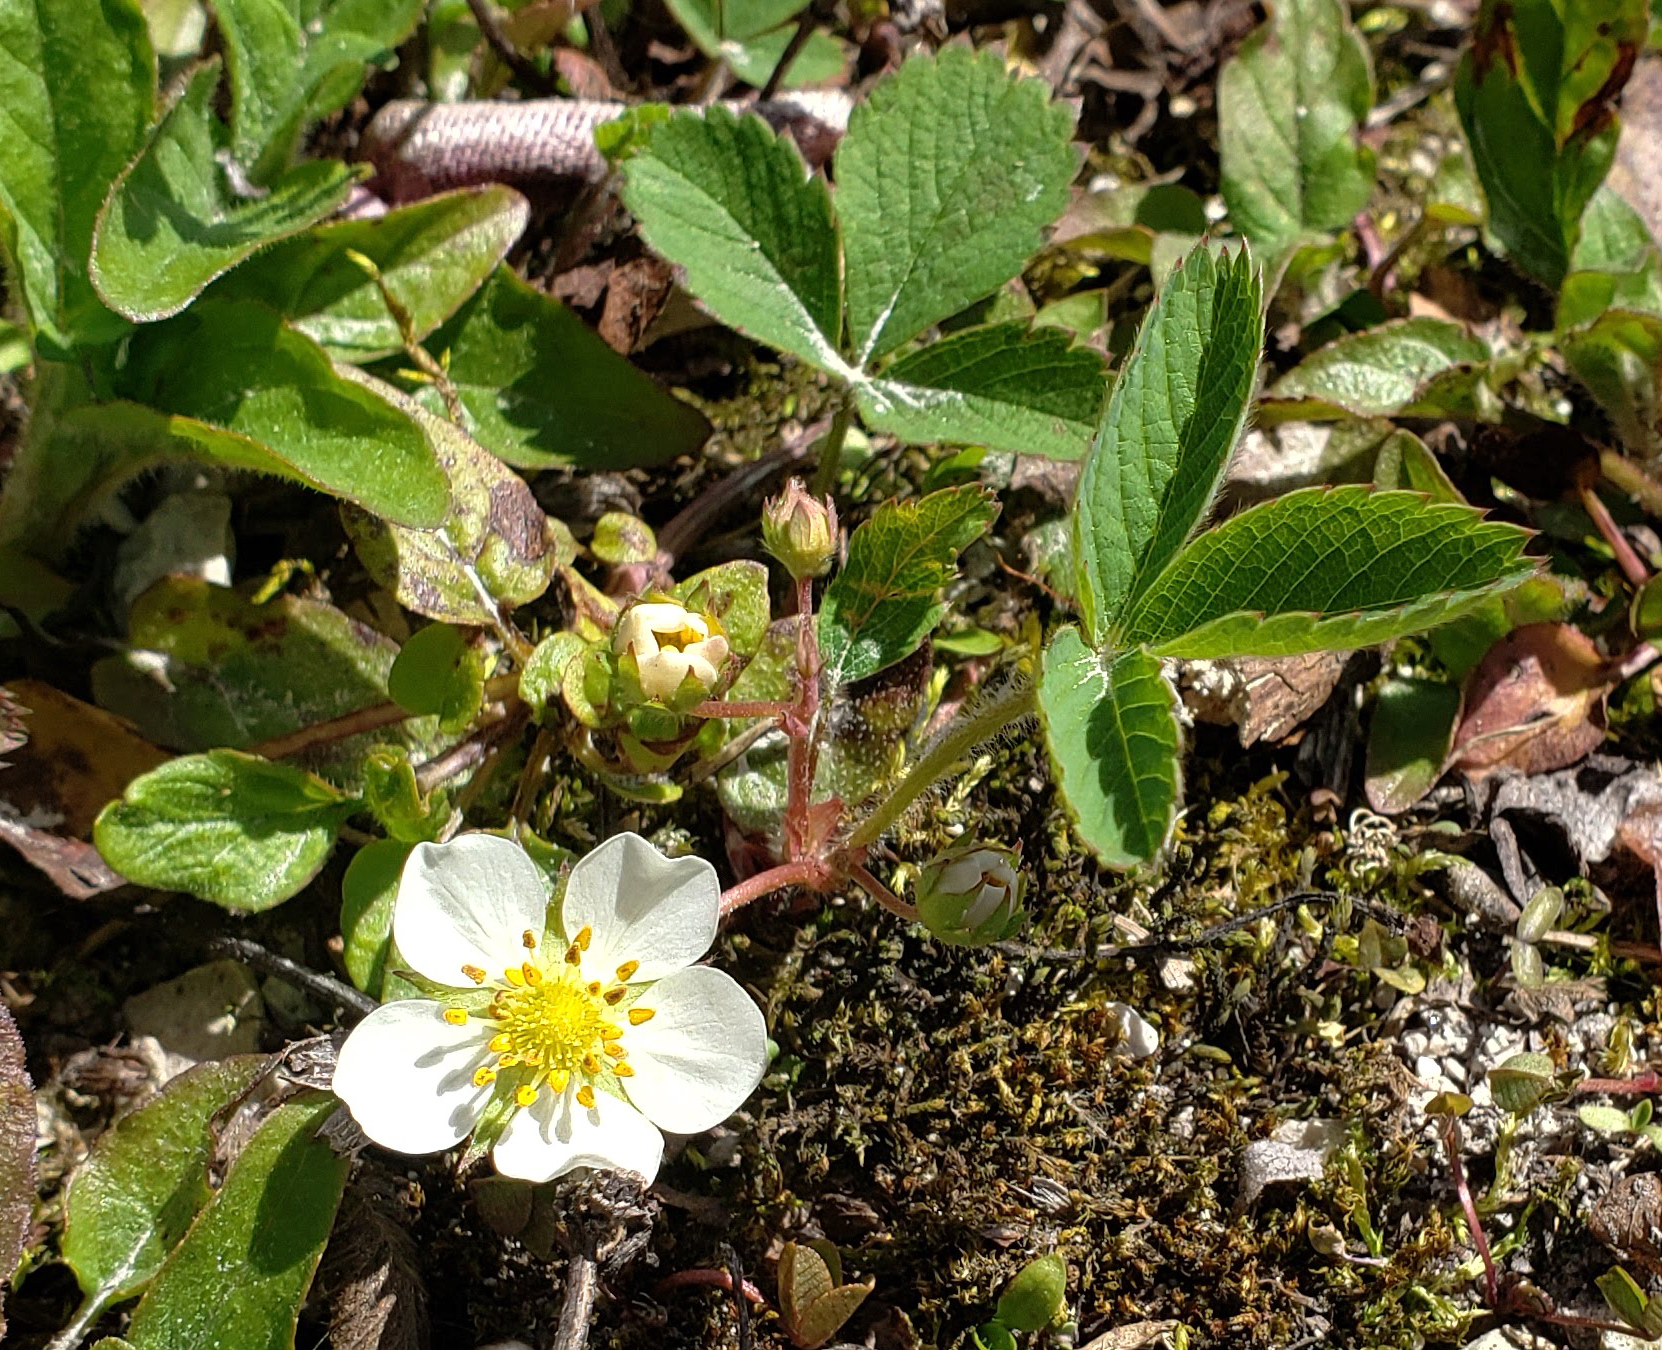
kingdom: Plantae
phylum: Tracheophyta
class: Magnoliopsida
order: Rosales
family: Rosaceae
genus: Fragaria
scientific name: Fragaria virginiana
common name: Thickleaved wild strawberry
